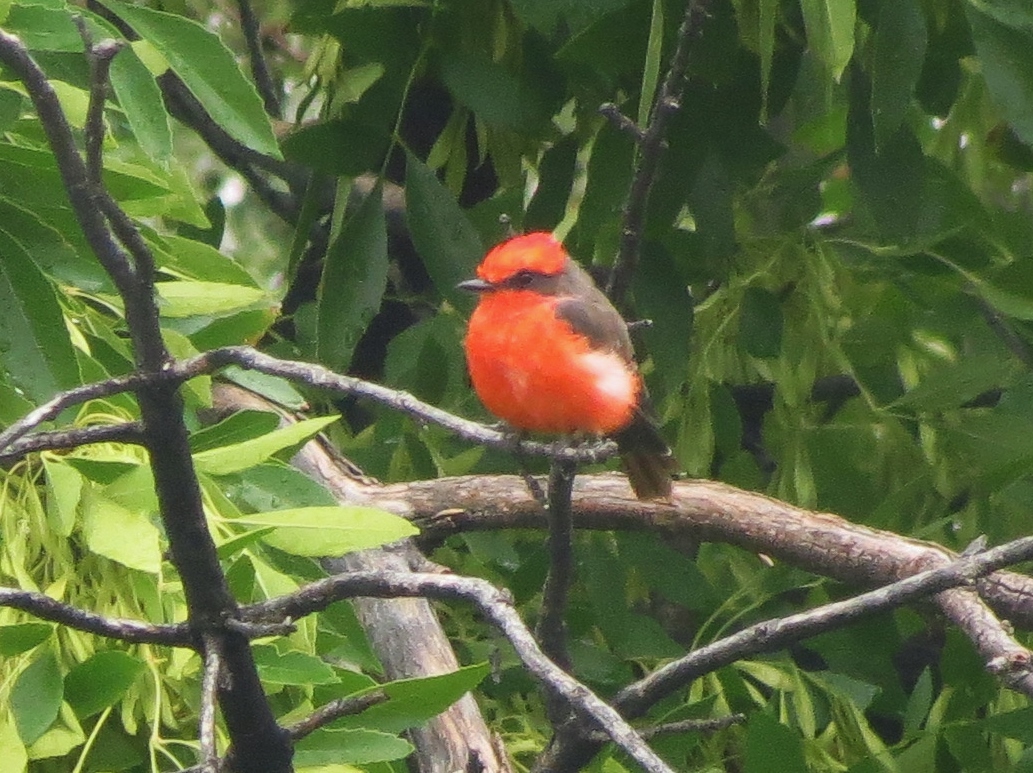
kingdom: Animalia
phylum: Chordata
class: Aves
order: Passeriformes
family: Tyrannidae
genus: Pyrocephalus
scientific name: Pyrocephalus rubinus
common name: Vermilion flycatcher
